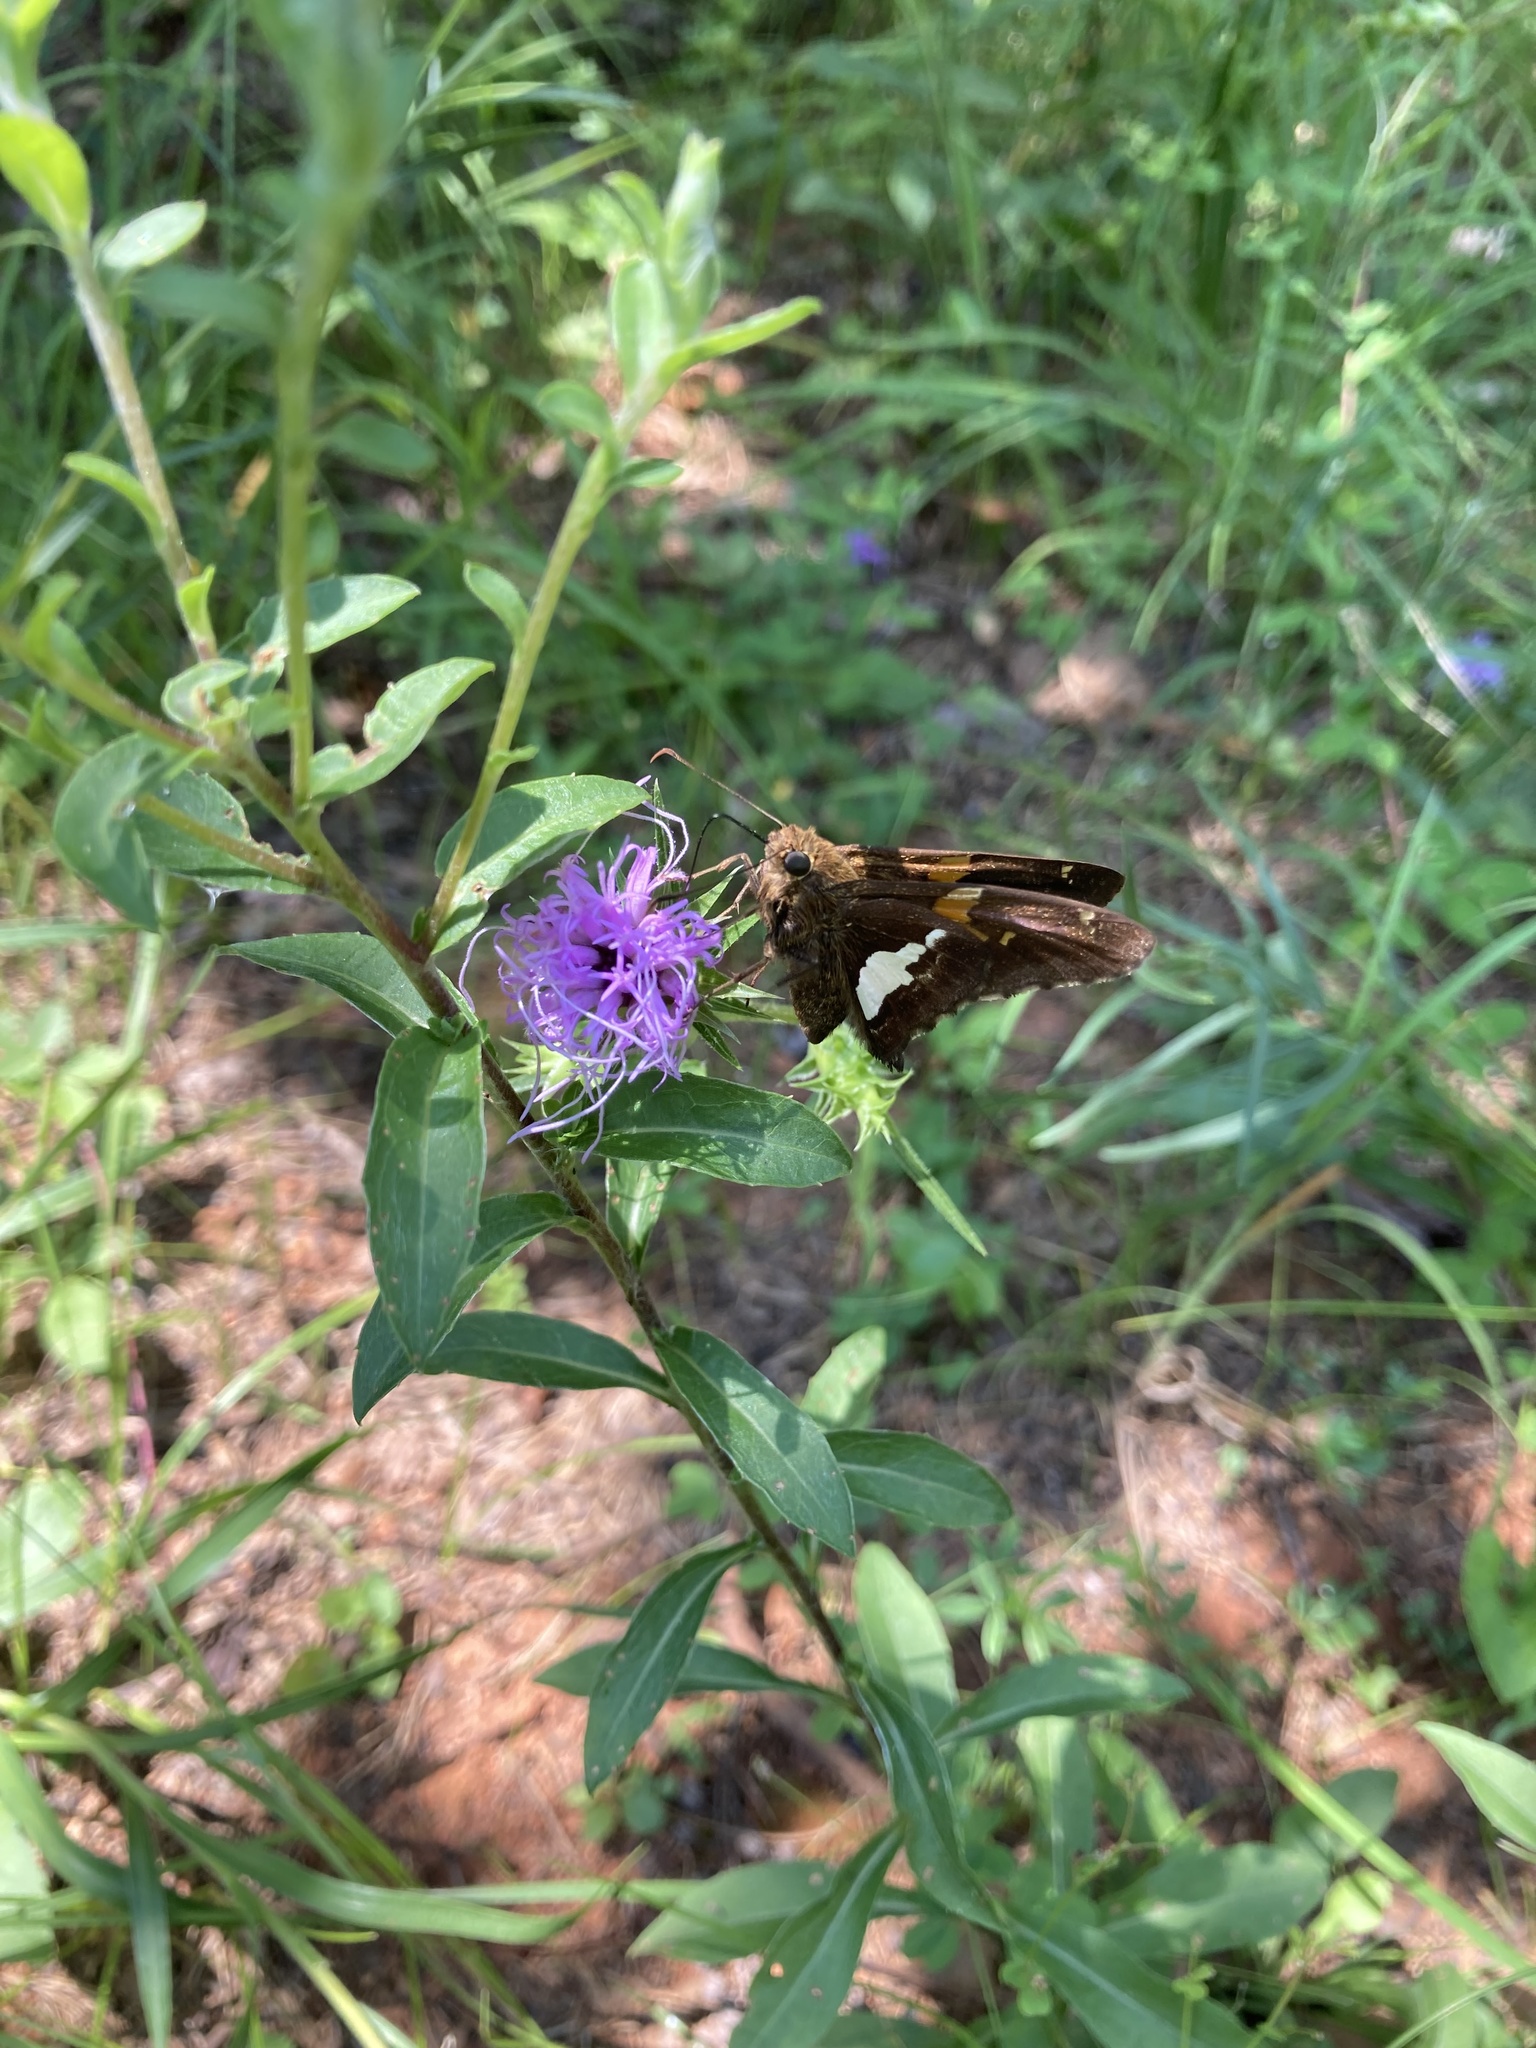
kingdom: Animalia
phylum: Arthropoda
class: Insecta
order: Lepidoptera
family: Hesperiidae
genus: Epargyreus
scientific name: Epargyreus clarus
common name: Silver-spotted skipper
